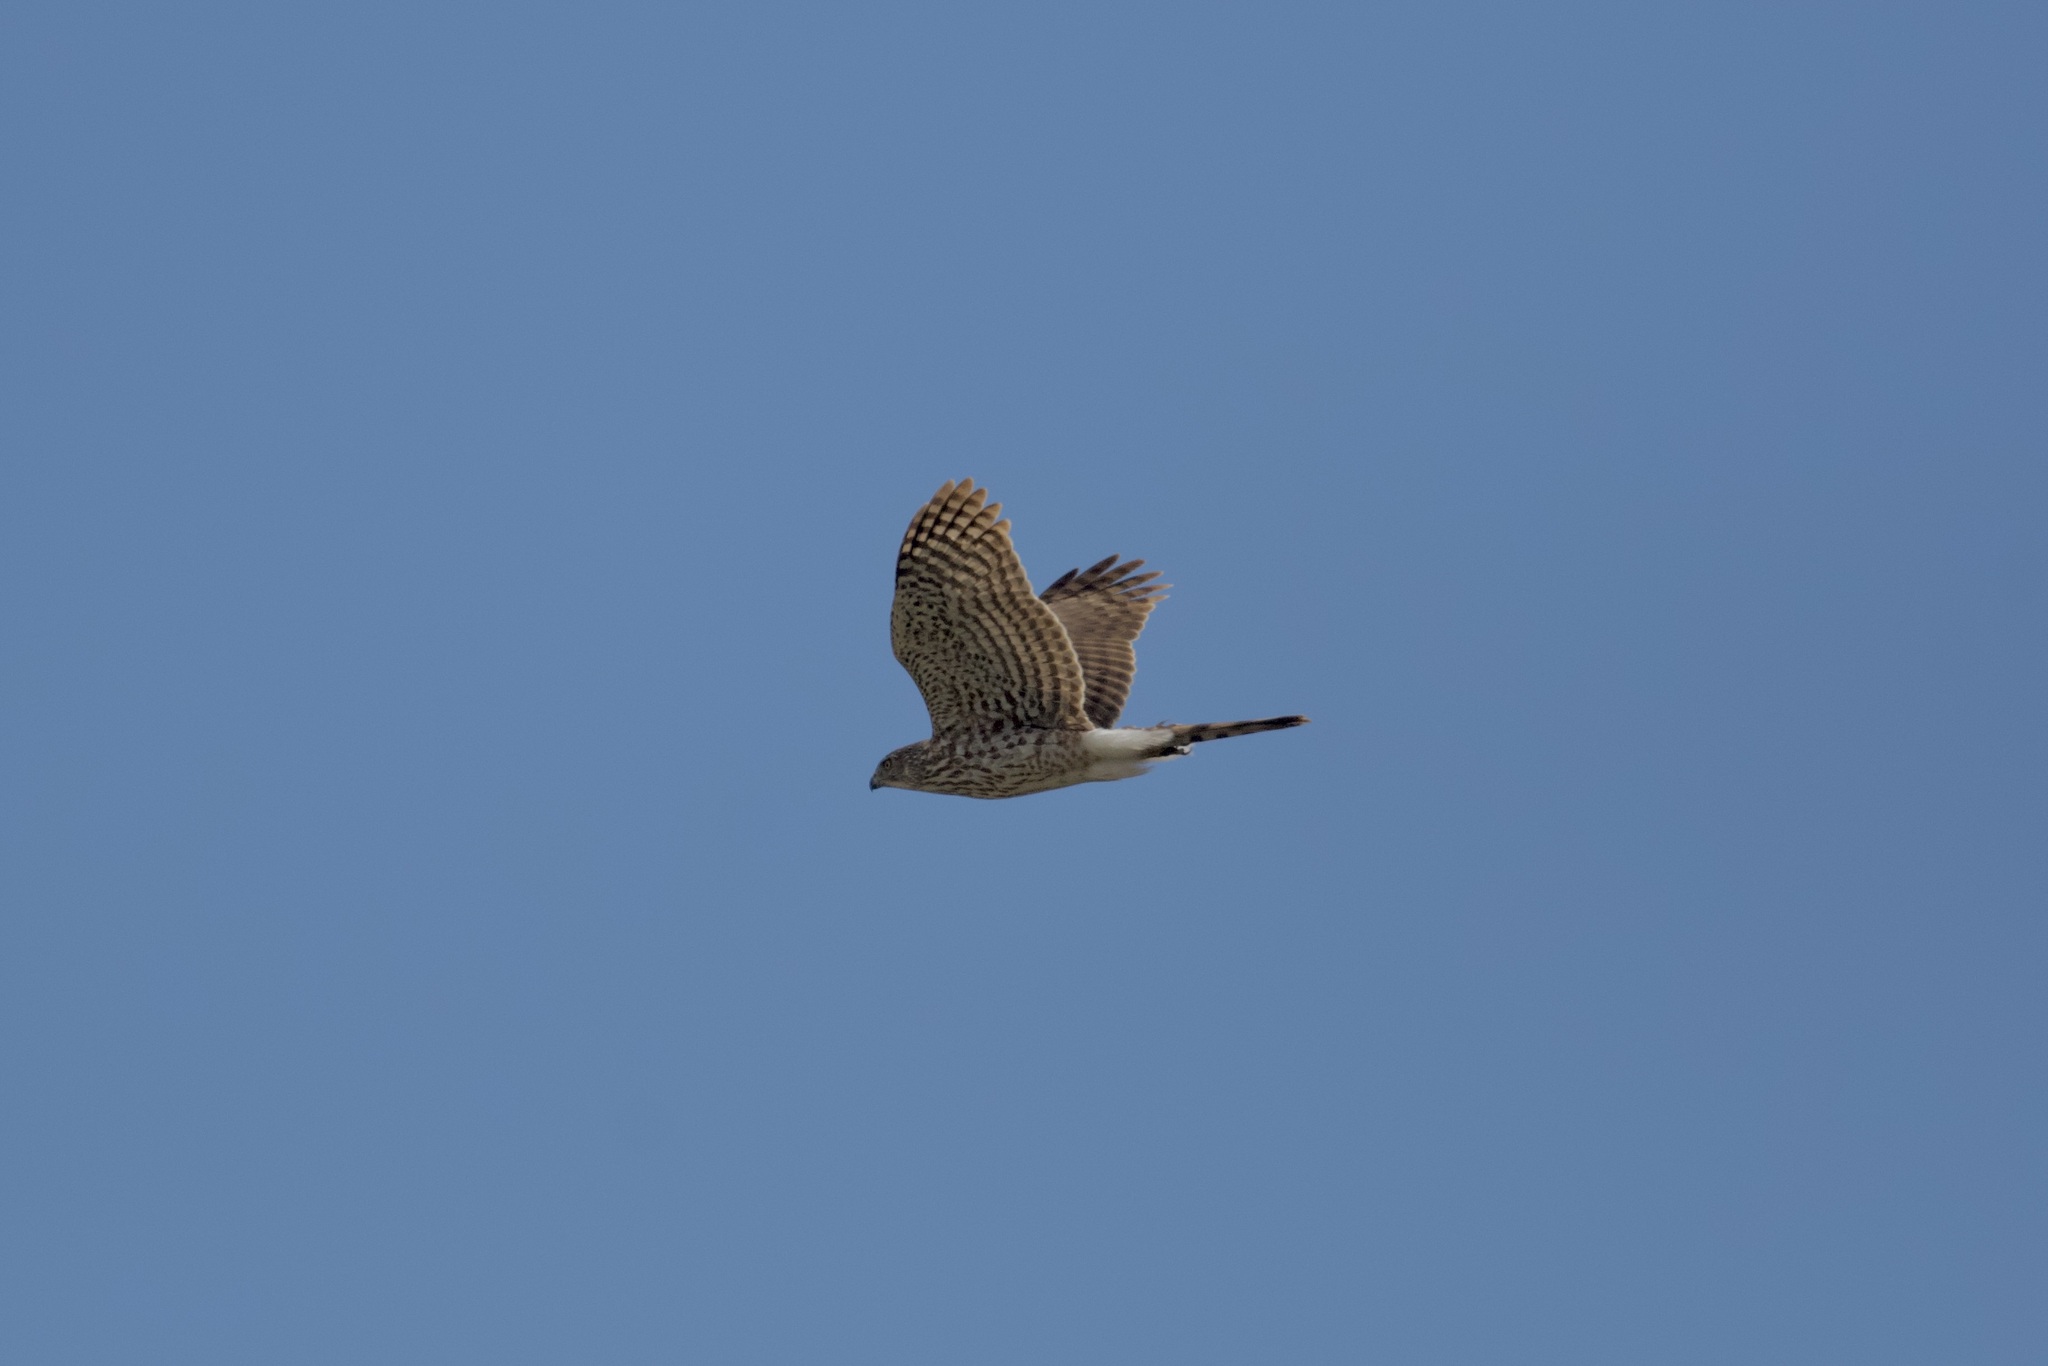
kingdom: Animalia
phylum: Chordata
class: Aves
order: Accipitriformes
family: Accipitridae
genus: Accipiter
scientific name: Accipiter cooperii
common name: Cooper's hawk
